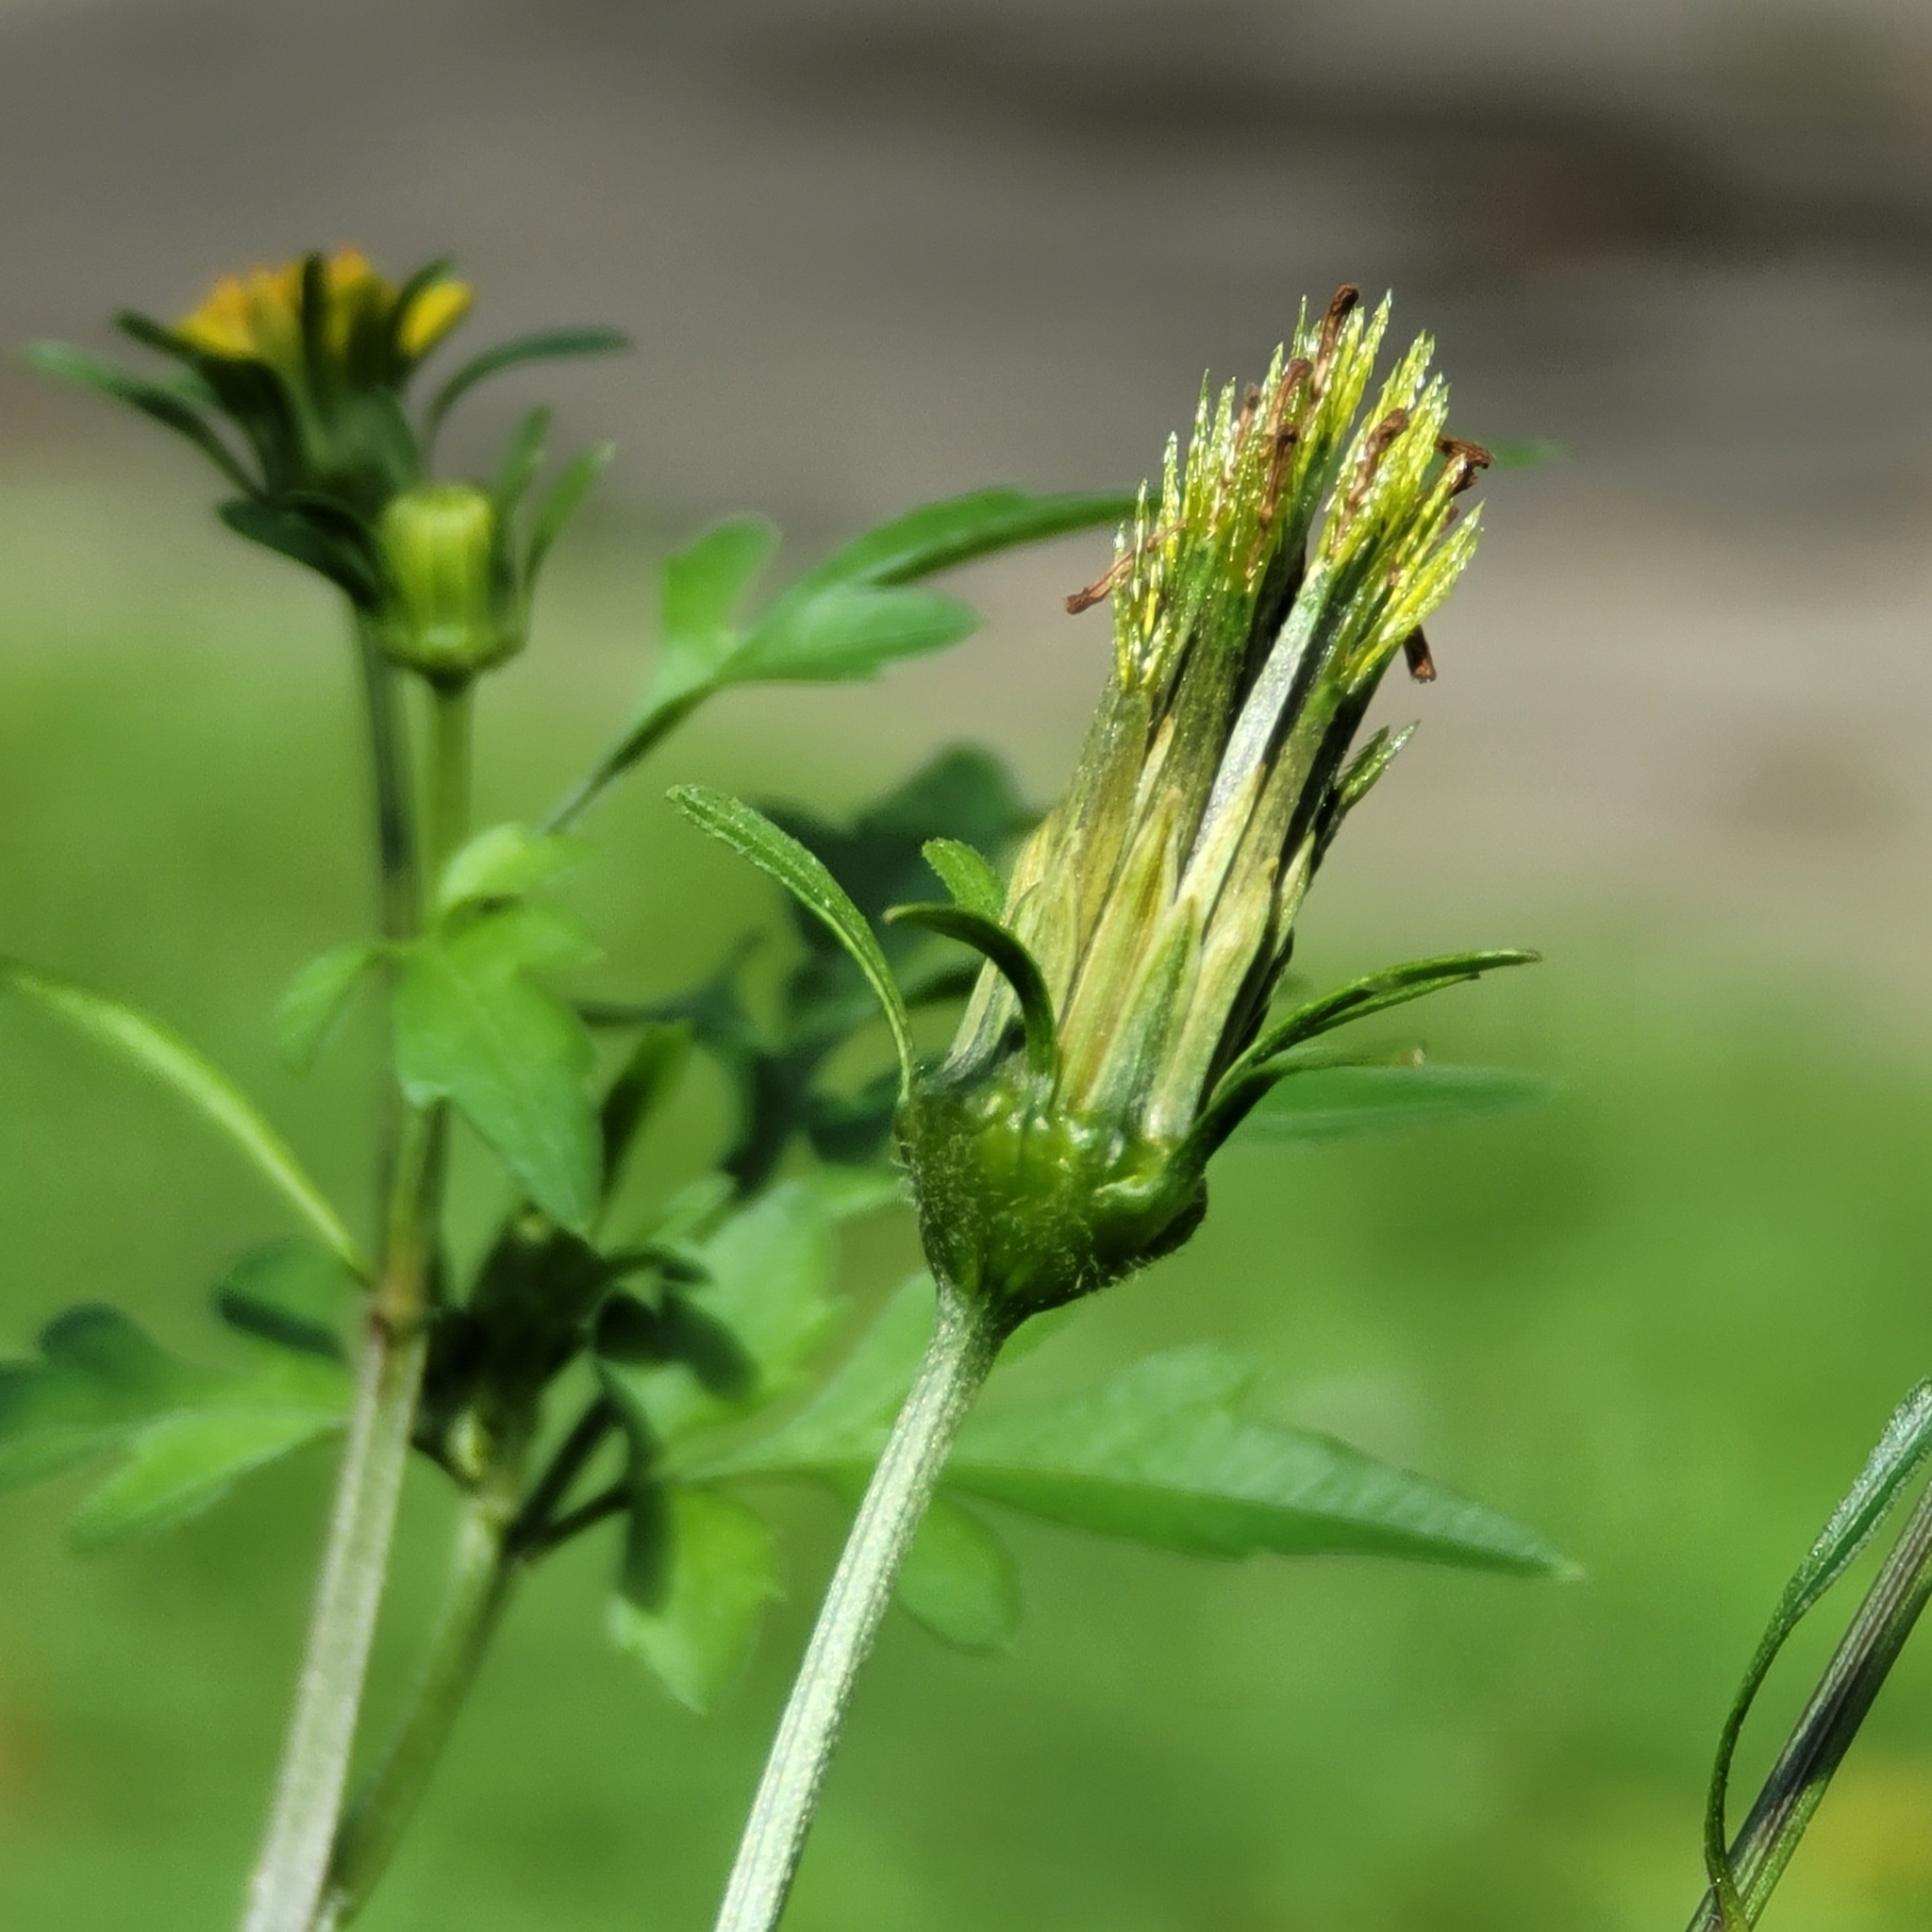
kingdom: Plantae
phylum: Tracheophyta
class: Magnoliopsida
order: Asterales
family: Asteraceae
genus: Bidens
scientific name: Bidens bipinnata
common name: Spanish-needles
